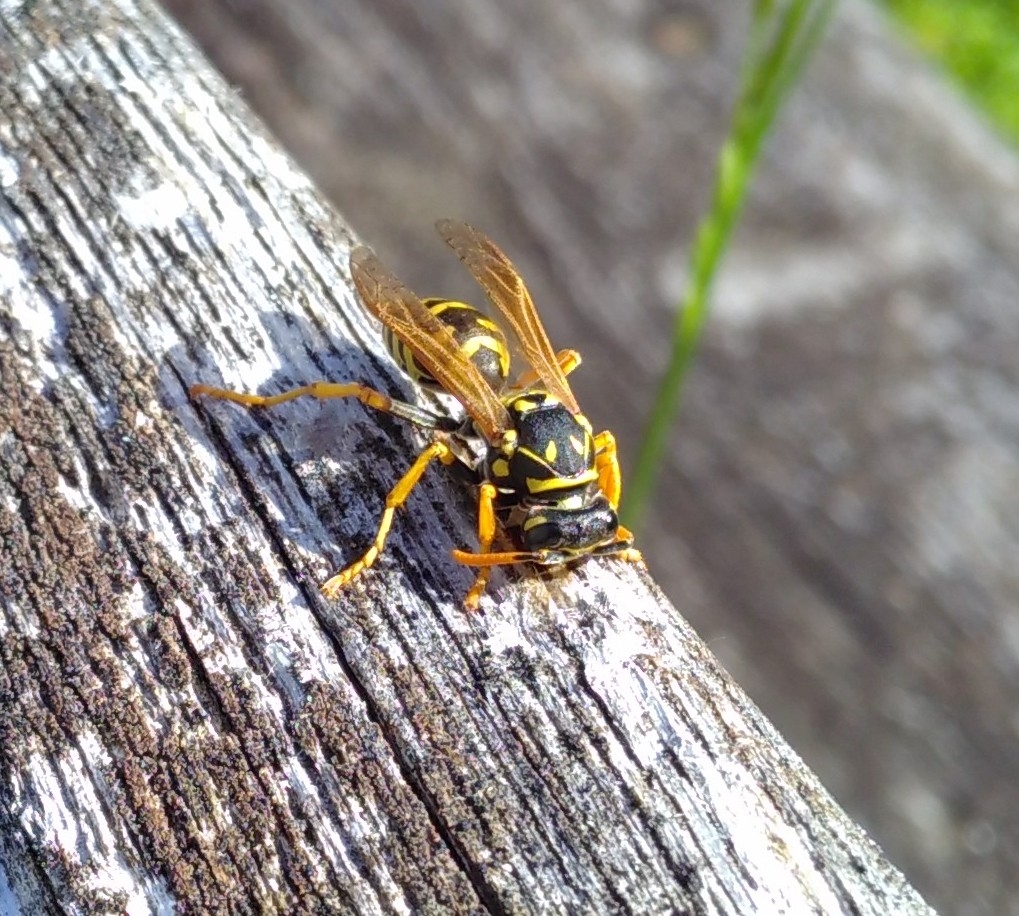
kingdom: Animalia
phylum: Arthropoda
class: Insecta
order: Hymenoptera
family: Eumenidae
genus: Polistes
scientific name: Polistes dominula
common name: Paper wasp
